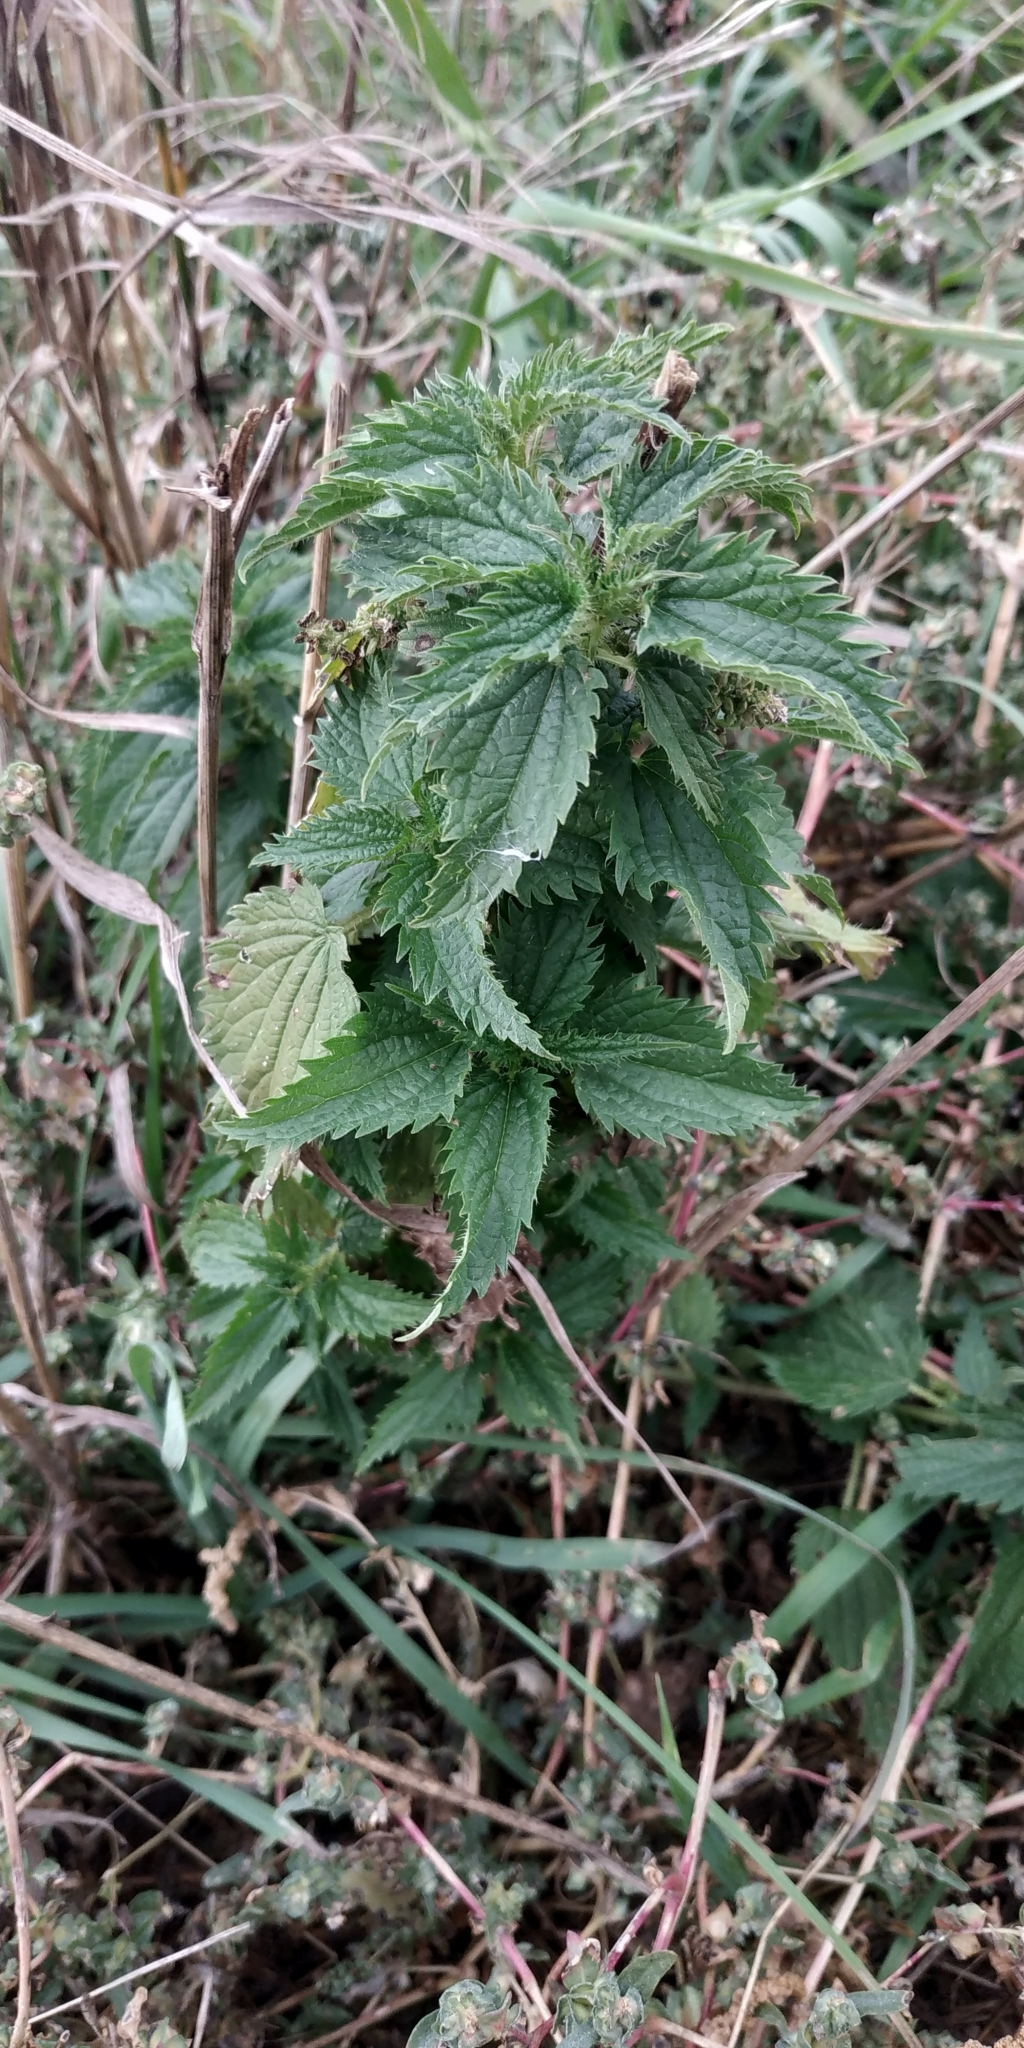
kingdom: Plantae
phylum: Tracheophyta
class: Magnoliopsida
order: Rosales
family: Urticaceae
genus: Urtica
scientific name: Urtica dioica
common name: Common nettle
